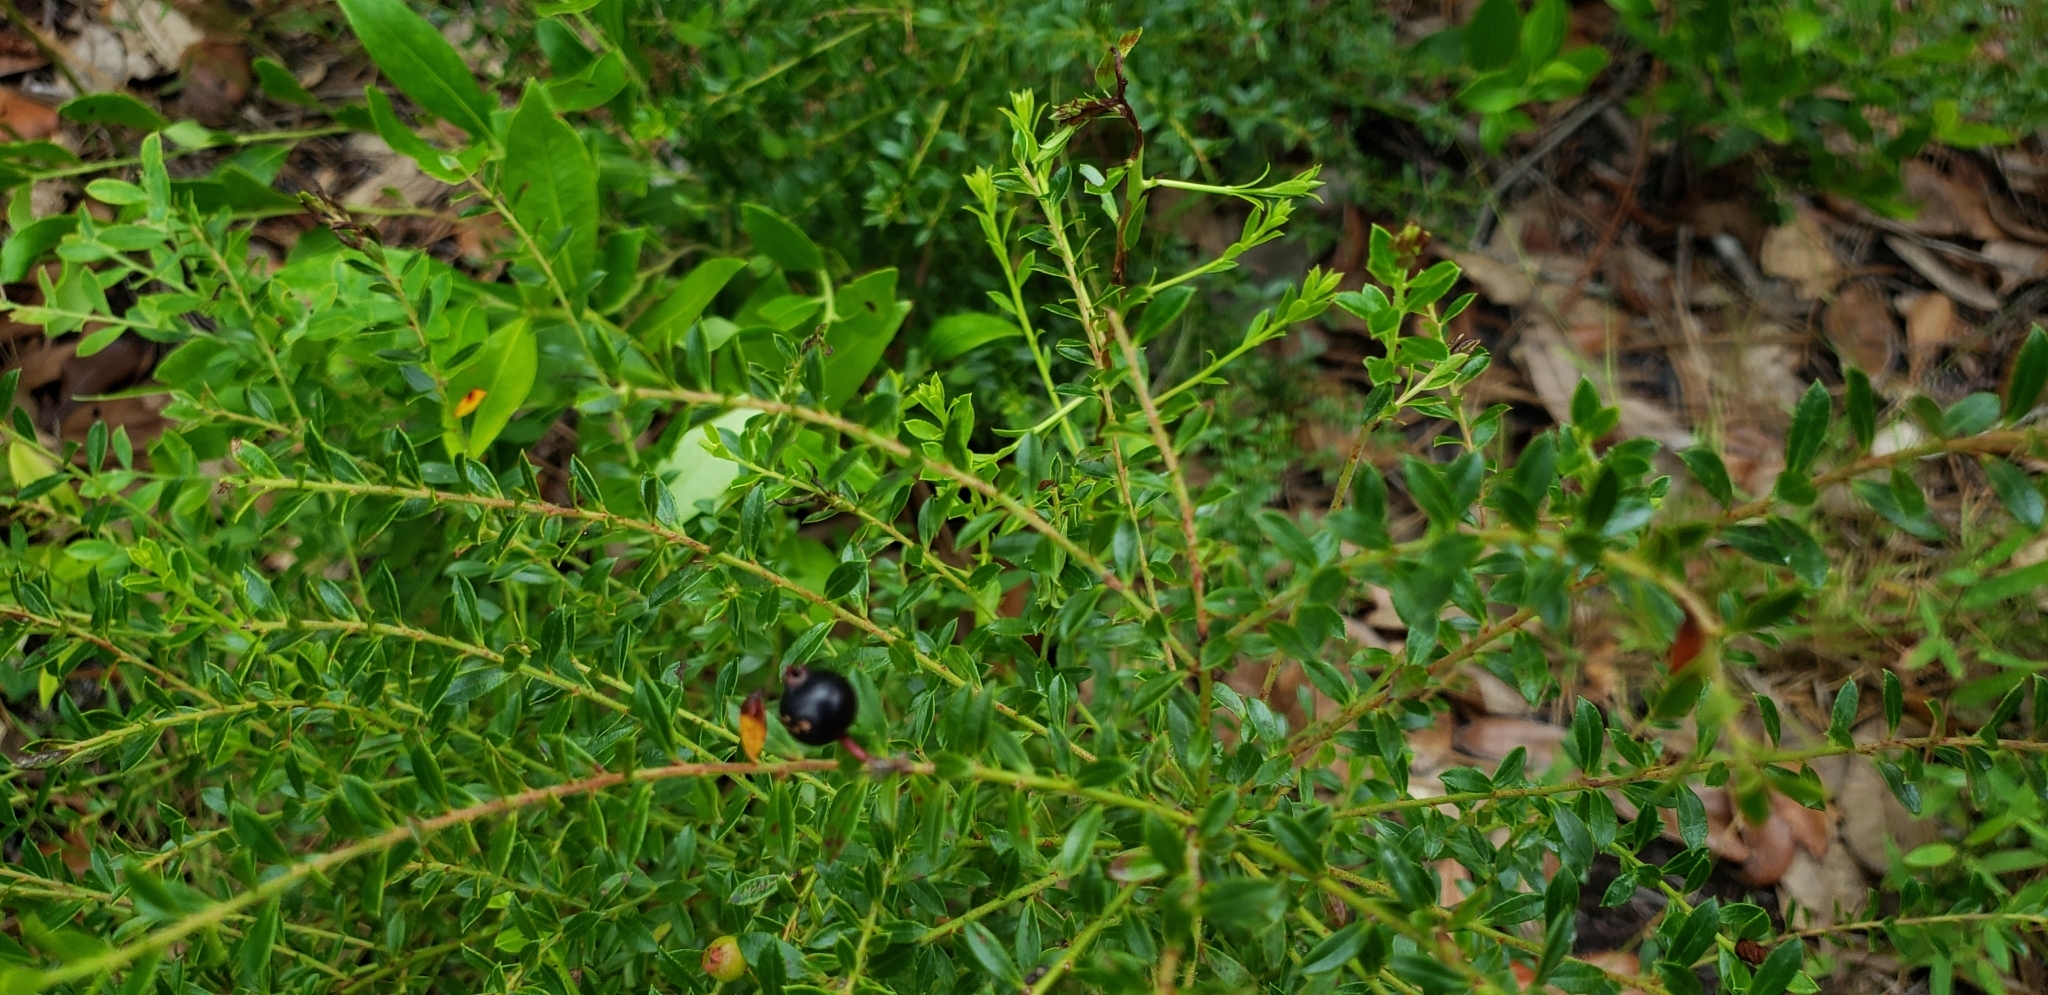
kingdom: Plantae
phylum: Tracheophyta
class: Magnoliopsida
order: Ericales
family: Ericaceae
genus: Vaccinium
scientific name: Vaccinium myrsinites
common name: Evergreen blueberry
